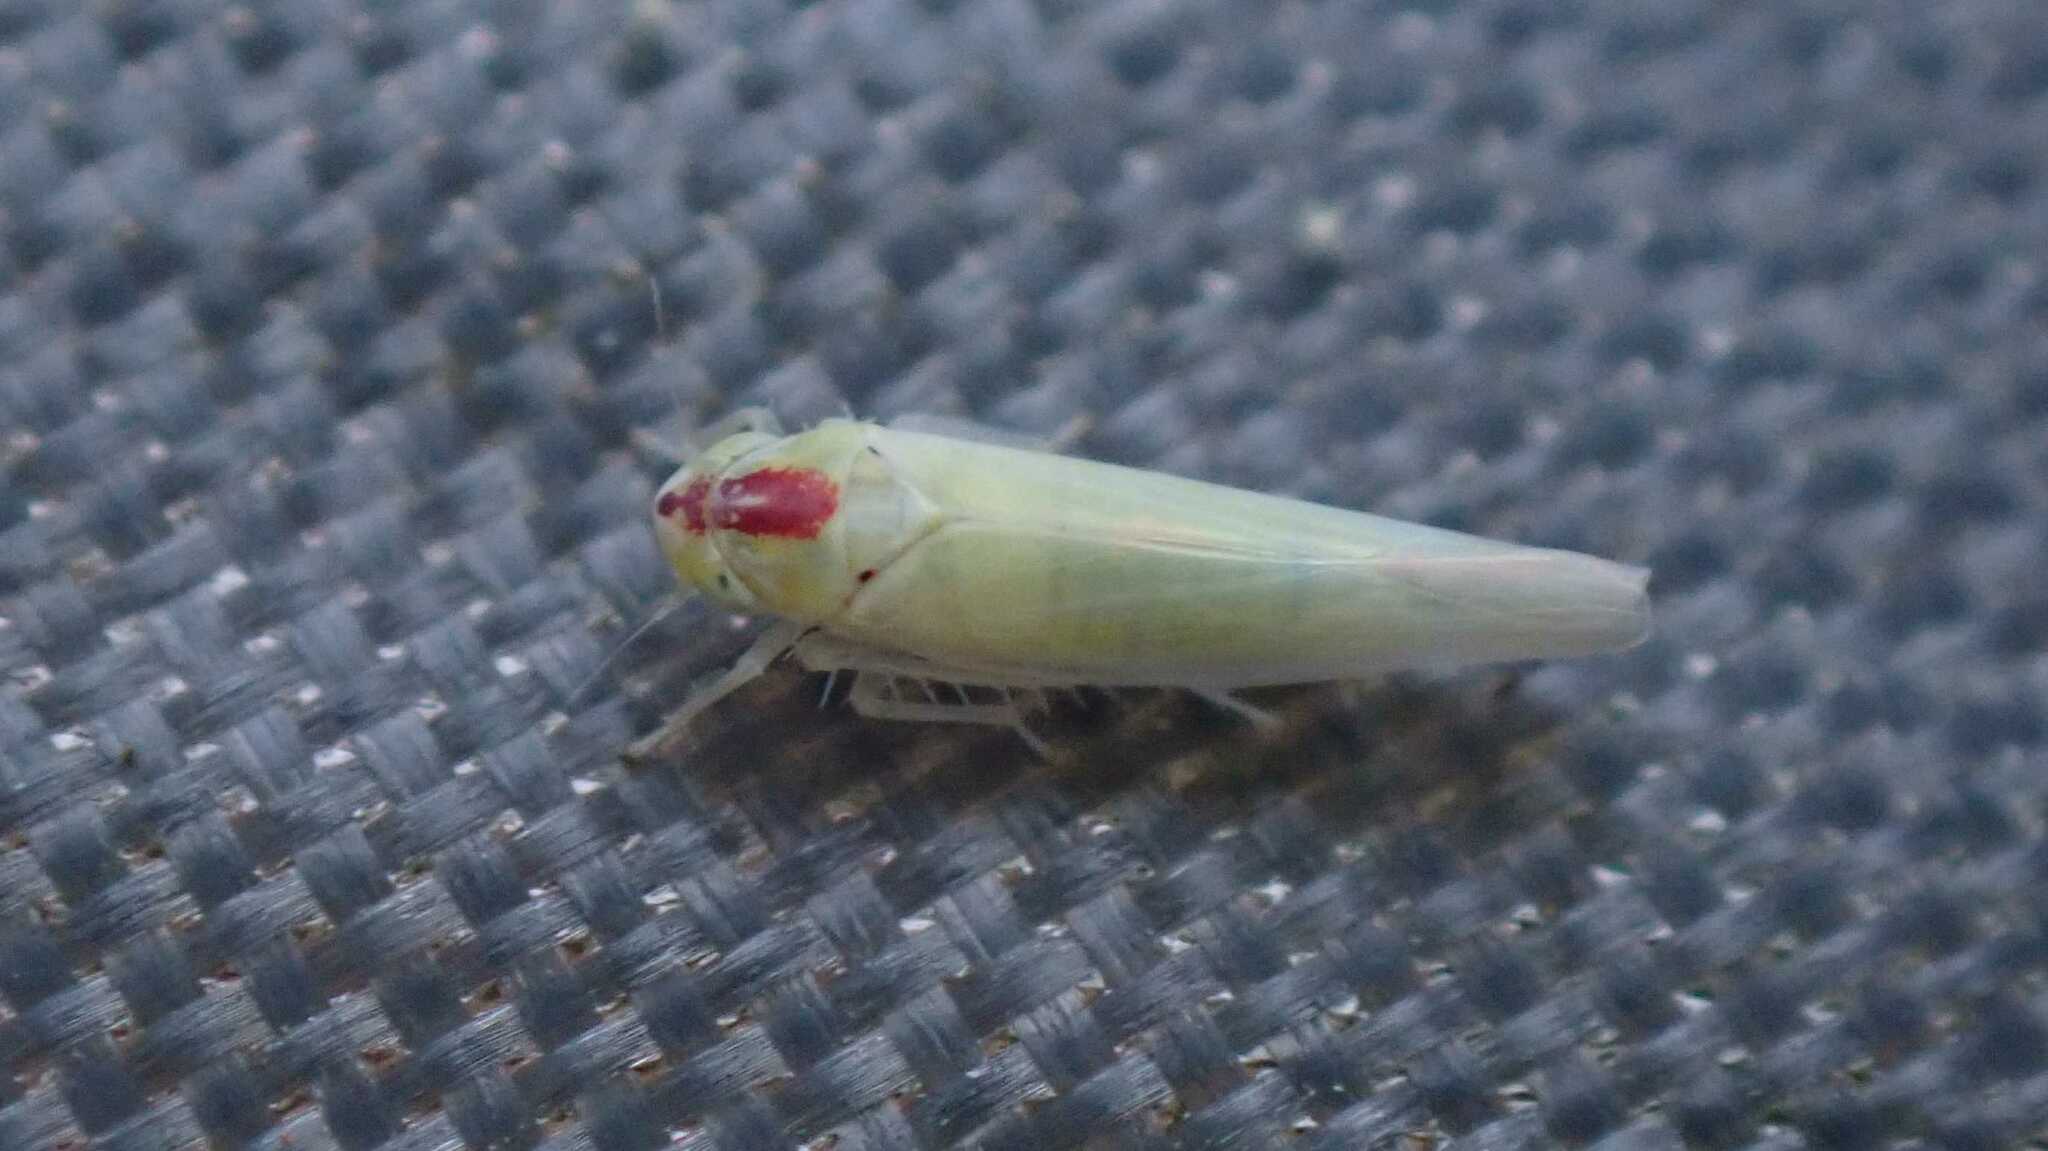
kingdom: Animalia
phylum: Arthropoda
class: Insecta
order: Hemiptera
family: Cicadellidae
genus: Zygina
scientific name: Zygina nivea
